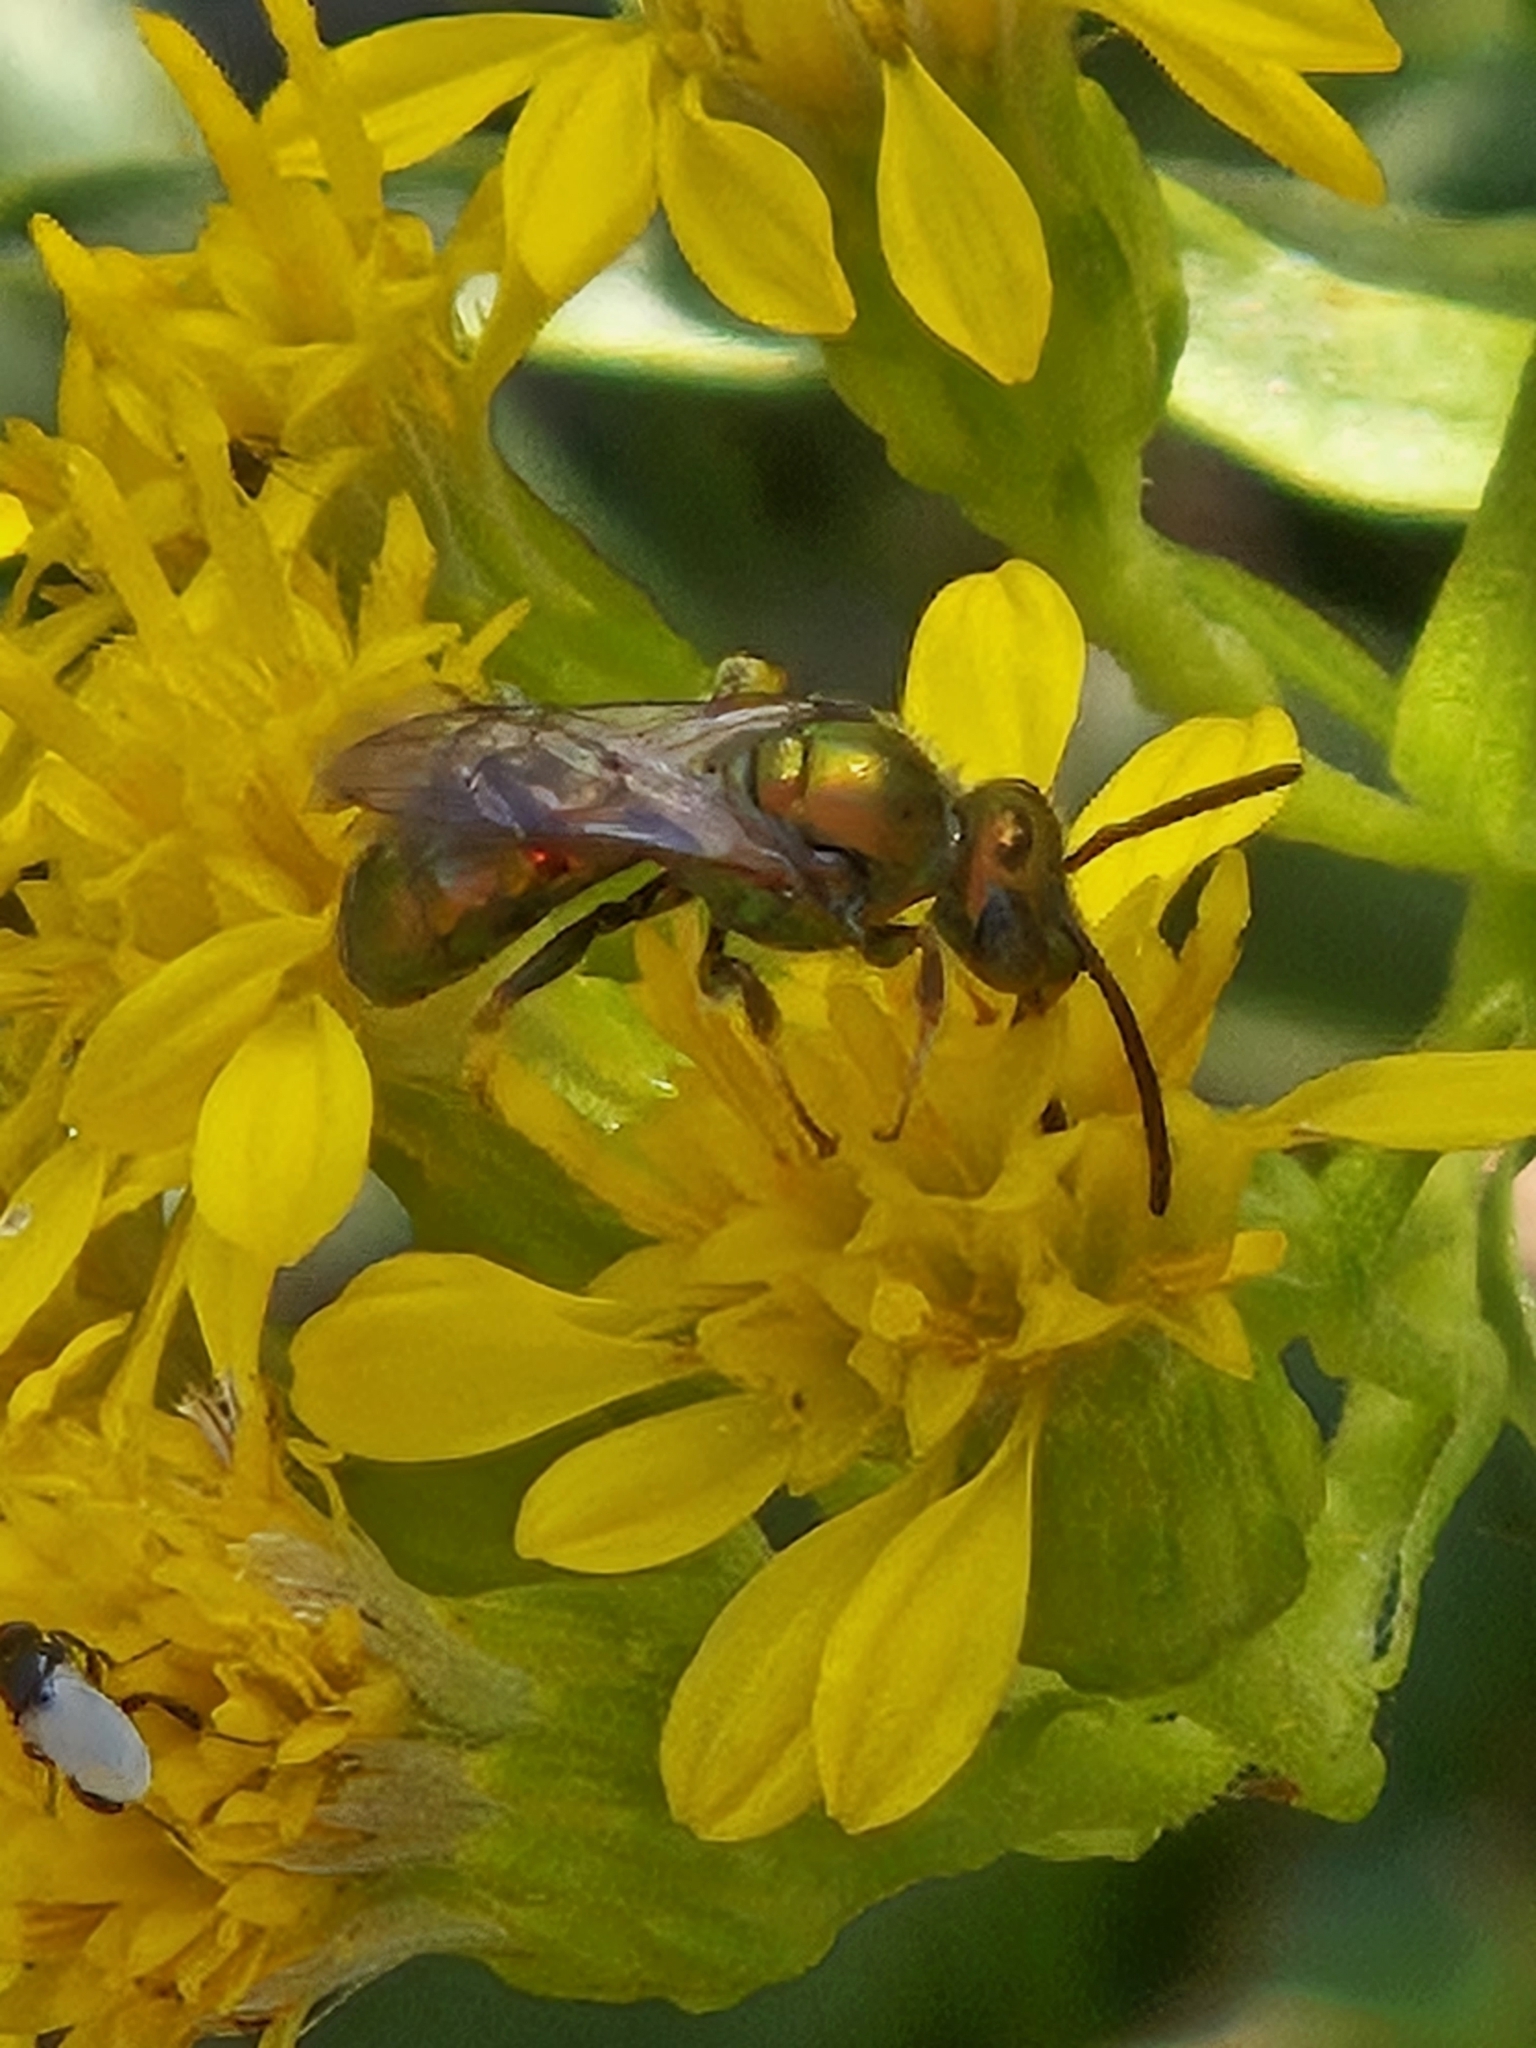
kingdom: Animalia
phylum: Arthropoda
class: Insecta
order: Hymenoptera
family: Halictidae
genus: Augochlorella
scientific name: Augochlorella aurata
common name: Golden sweat bee
